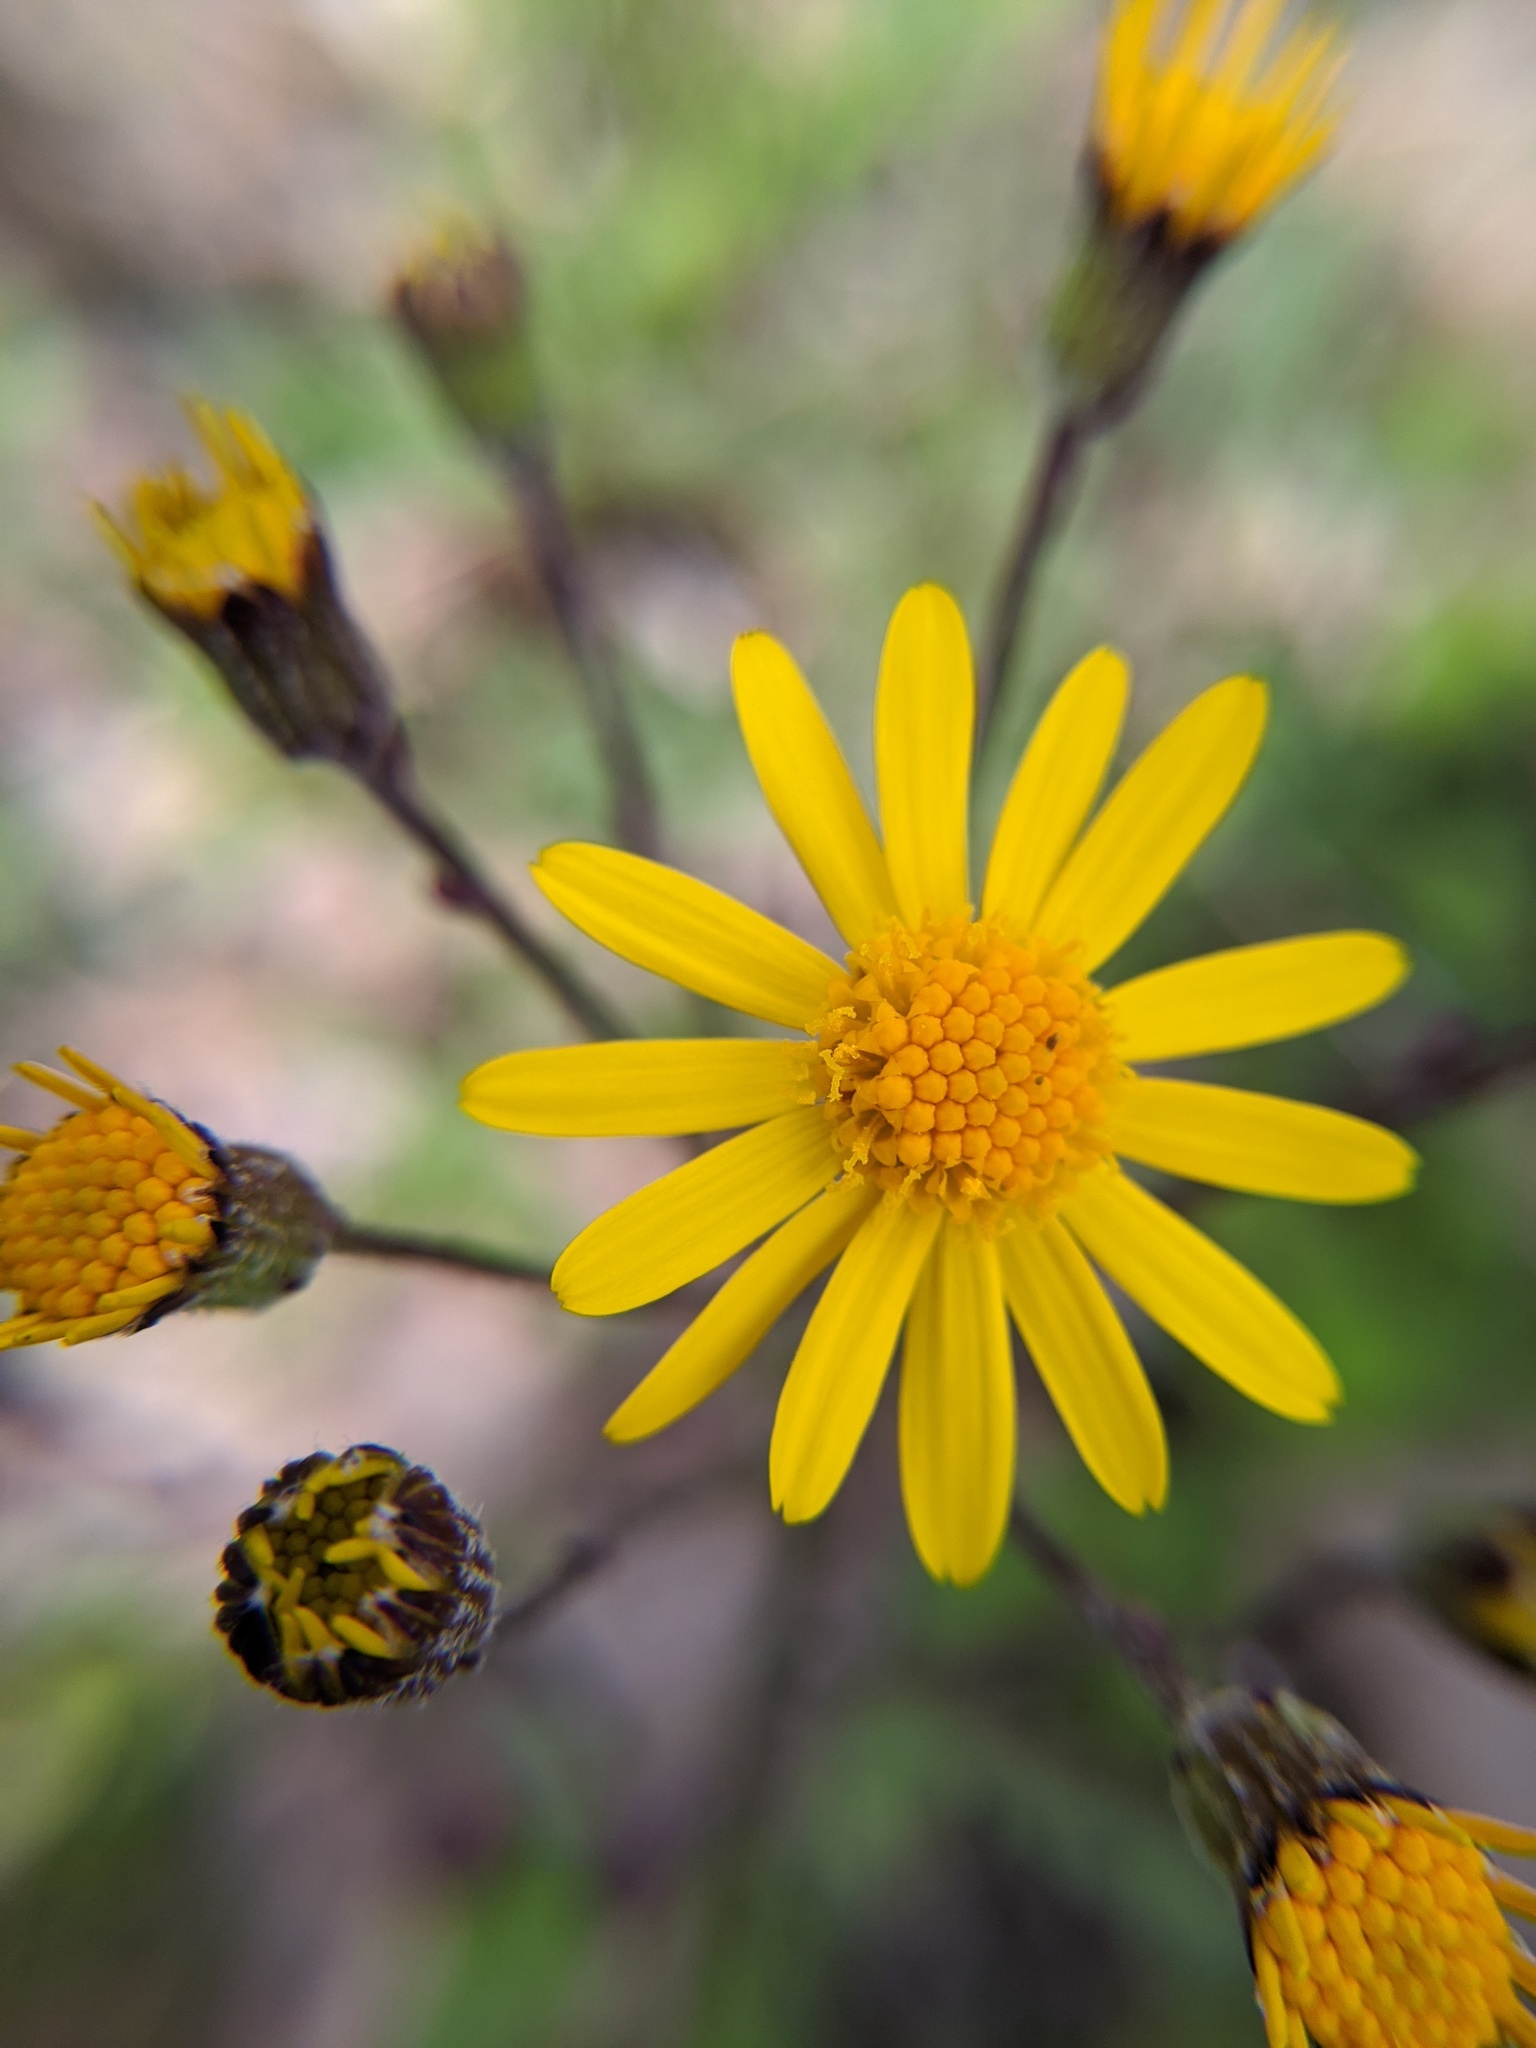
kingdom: Plantae
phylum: Tracheophyta
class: Magnoliopsida
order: Asterales
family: Asteraceae
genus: Packera
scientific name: Packera aurea
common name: Golden groundsel
